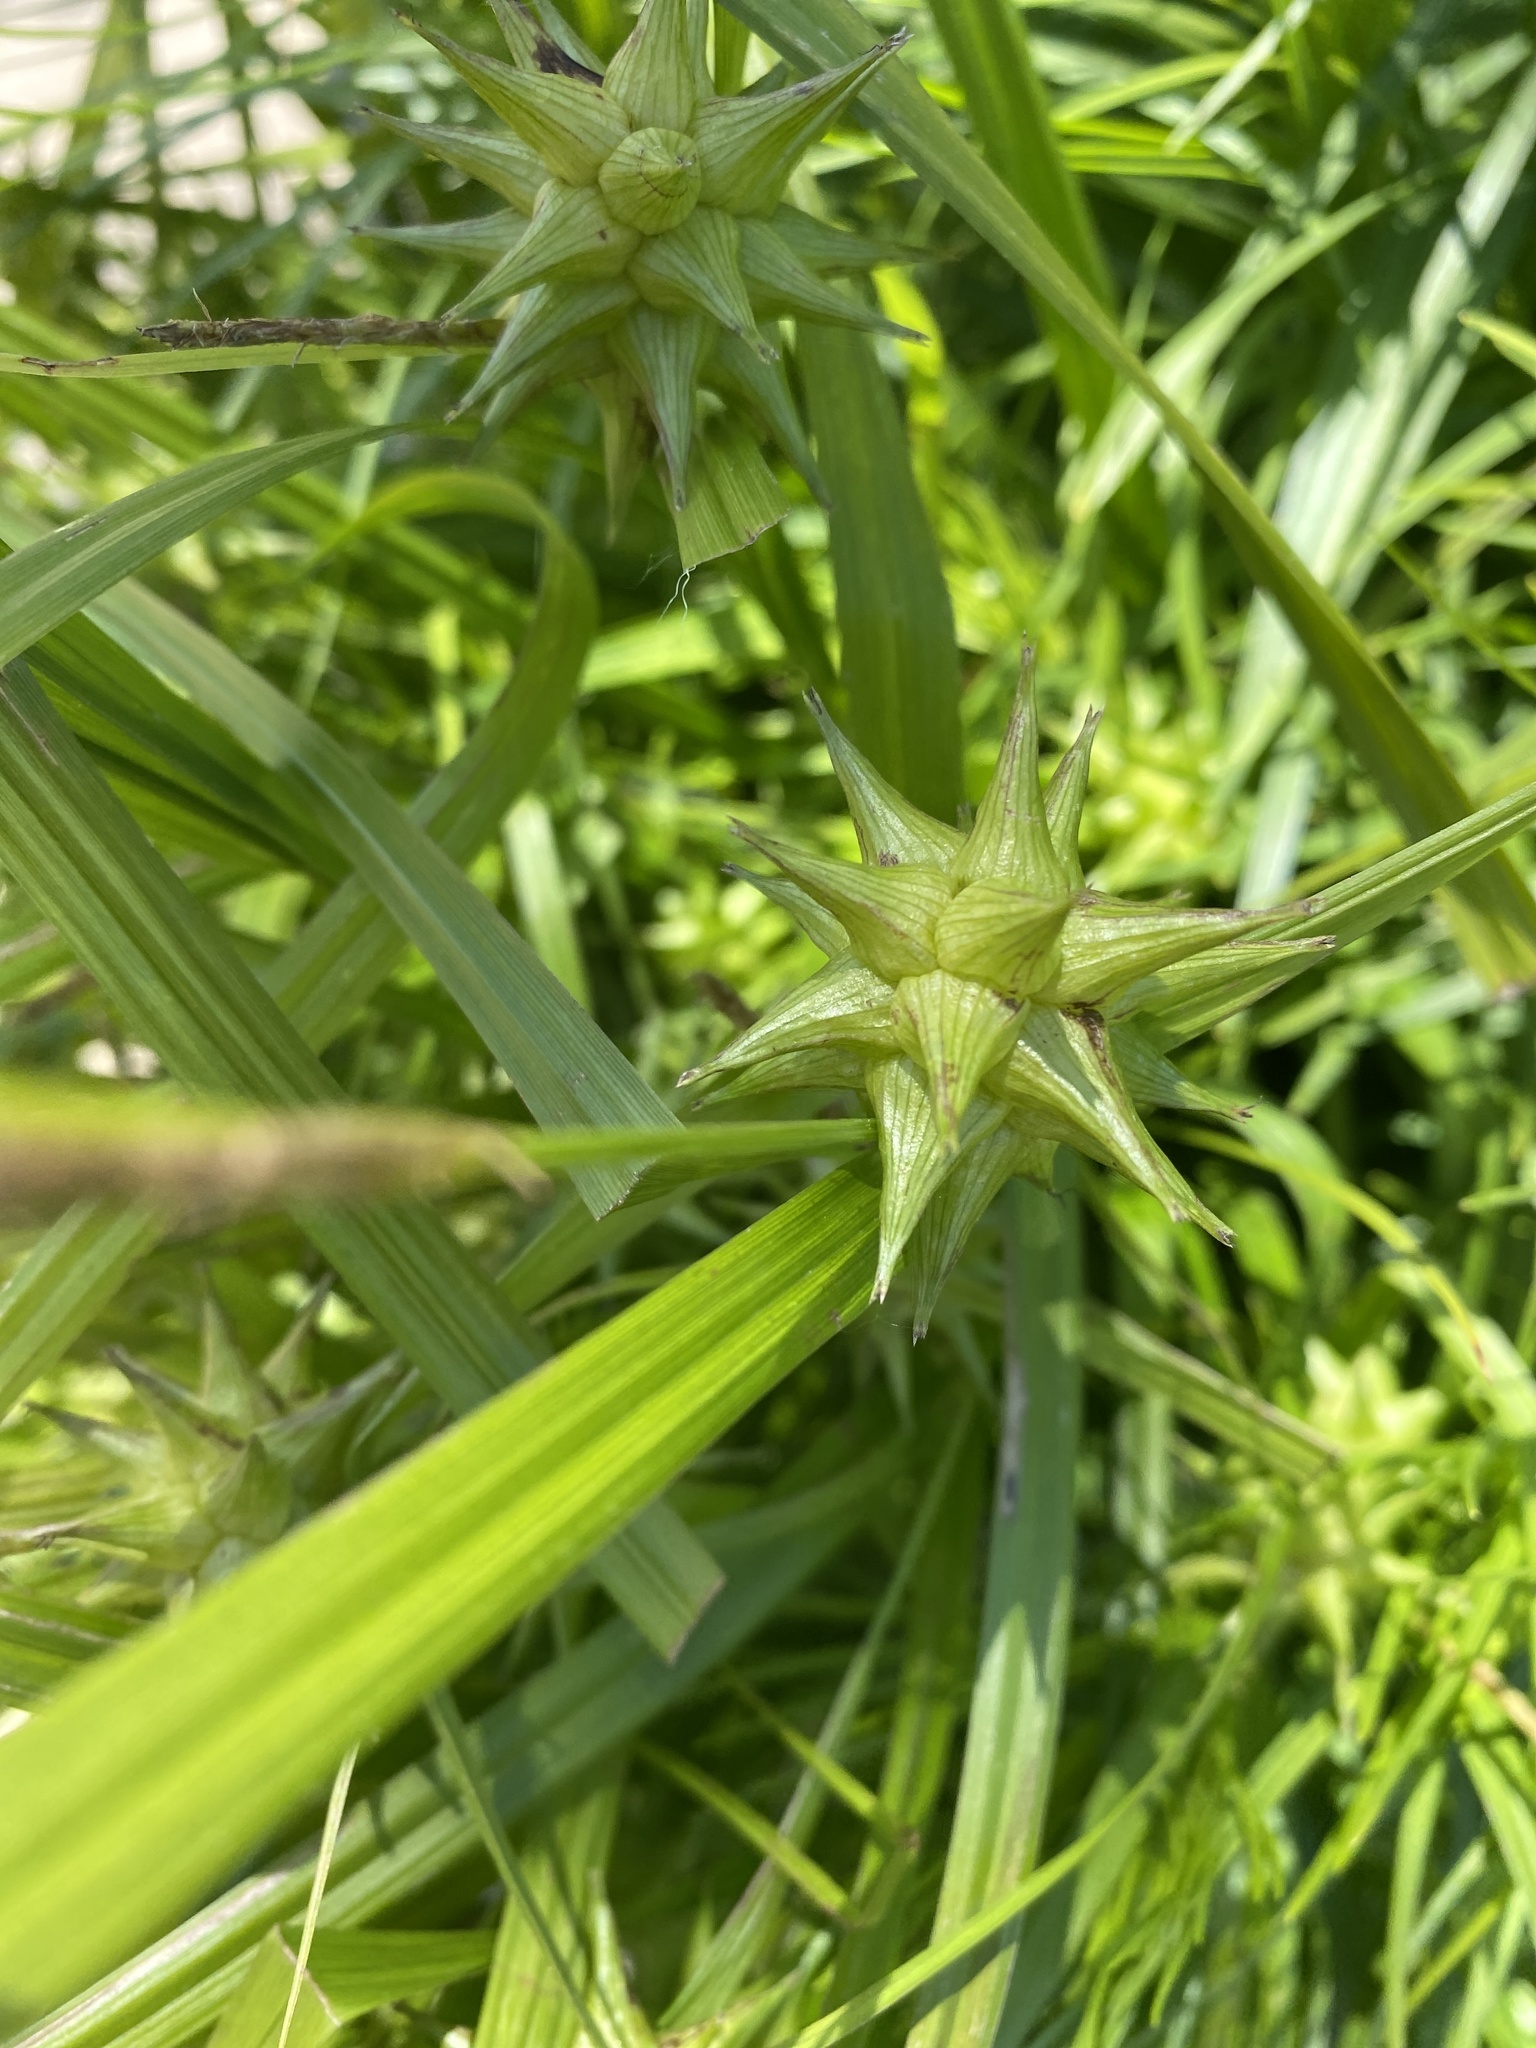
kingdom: Plantae
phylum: Tracheophyta
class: Liliopsida
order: Poales
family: Cyperaceae
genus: Carex
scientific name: Carex grayi
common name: Asa gray's sedge
